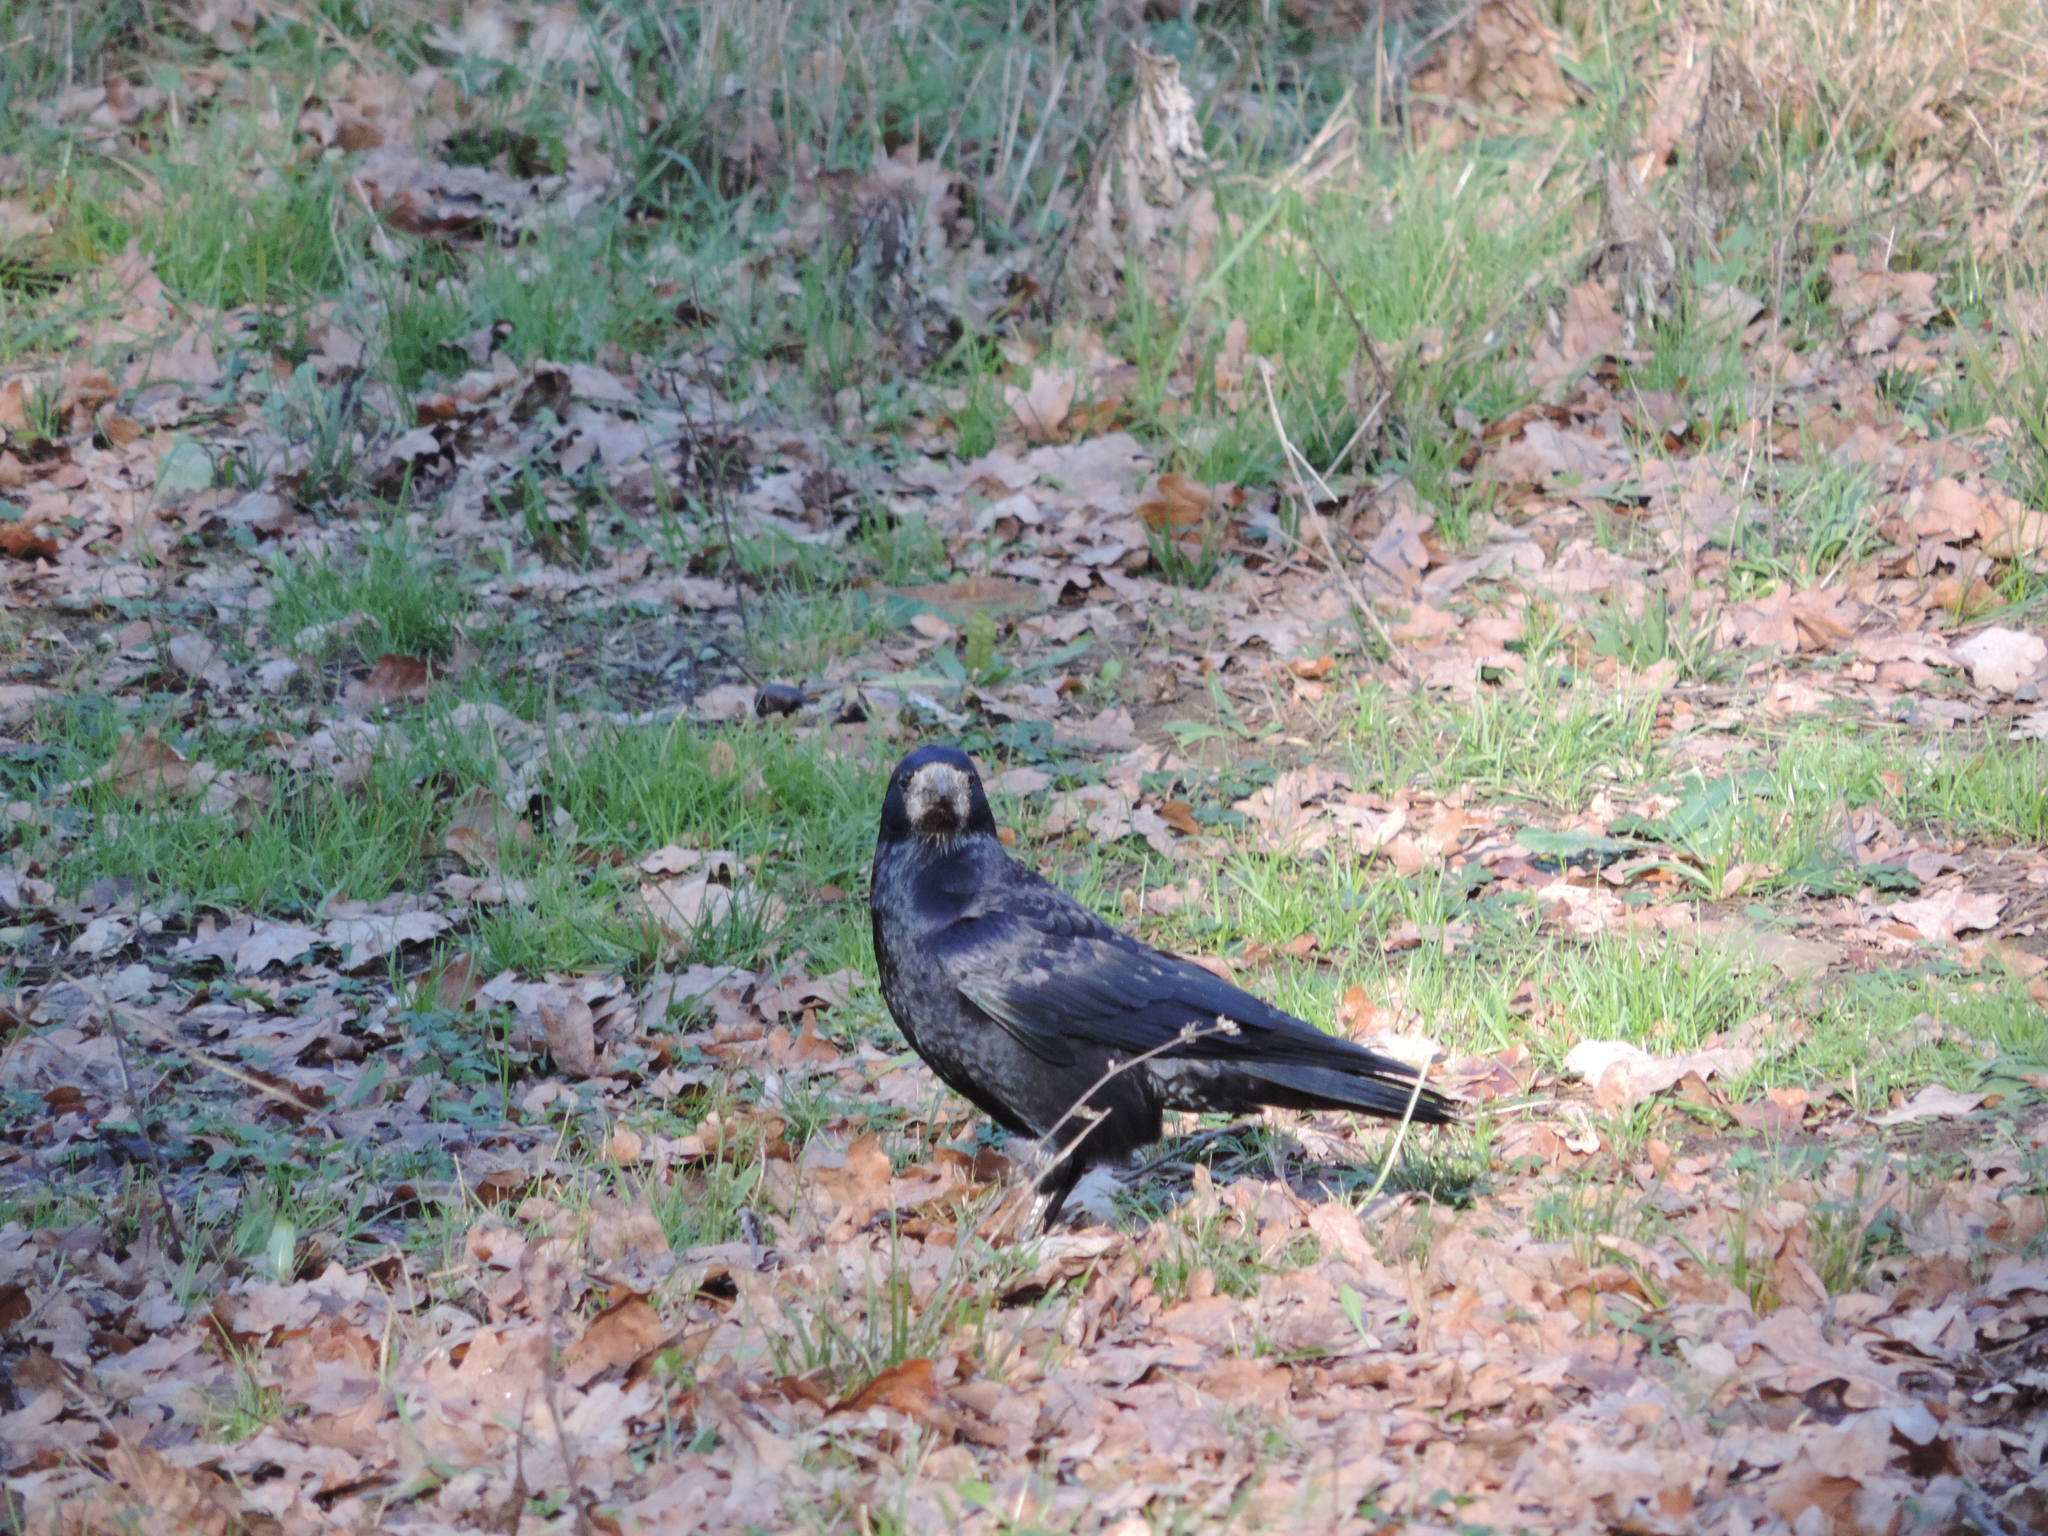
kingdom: Animalia
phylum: Chordata
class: Aves
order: Passeriformes
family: Corvidae
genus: Corvus
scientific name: Corvus frugilegus
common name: Rook
